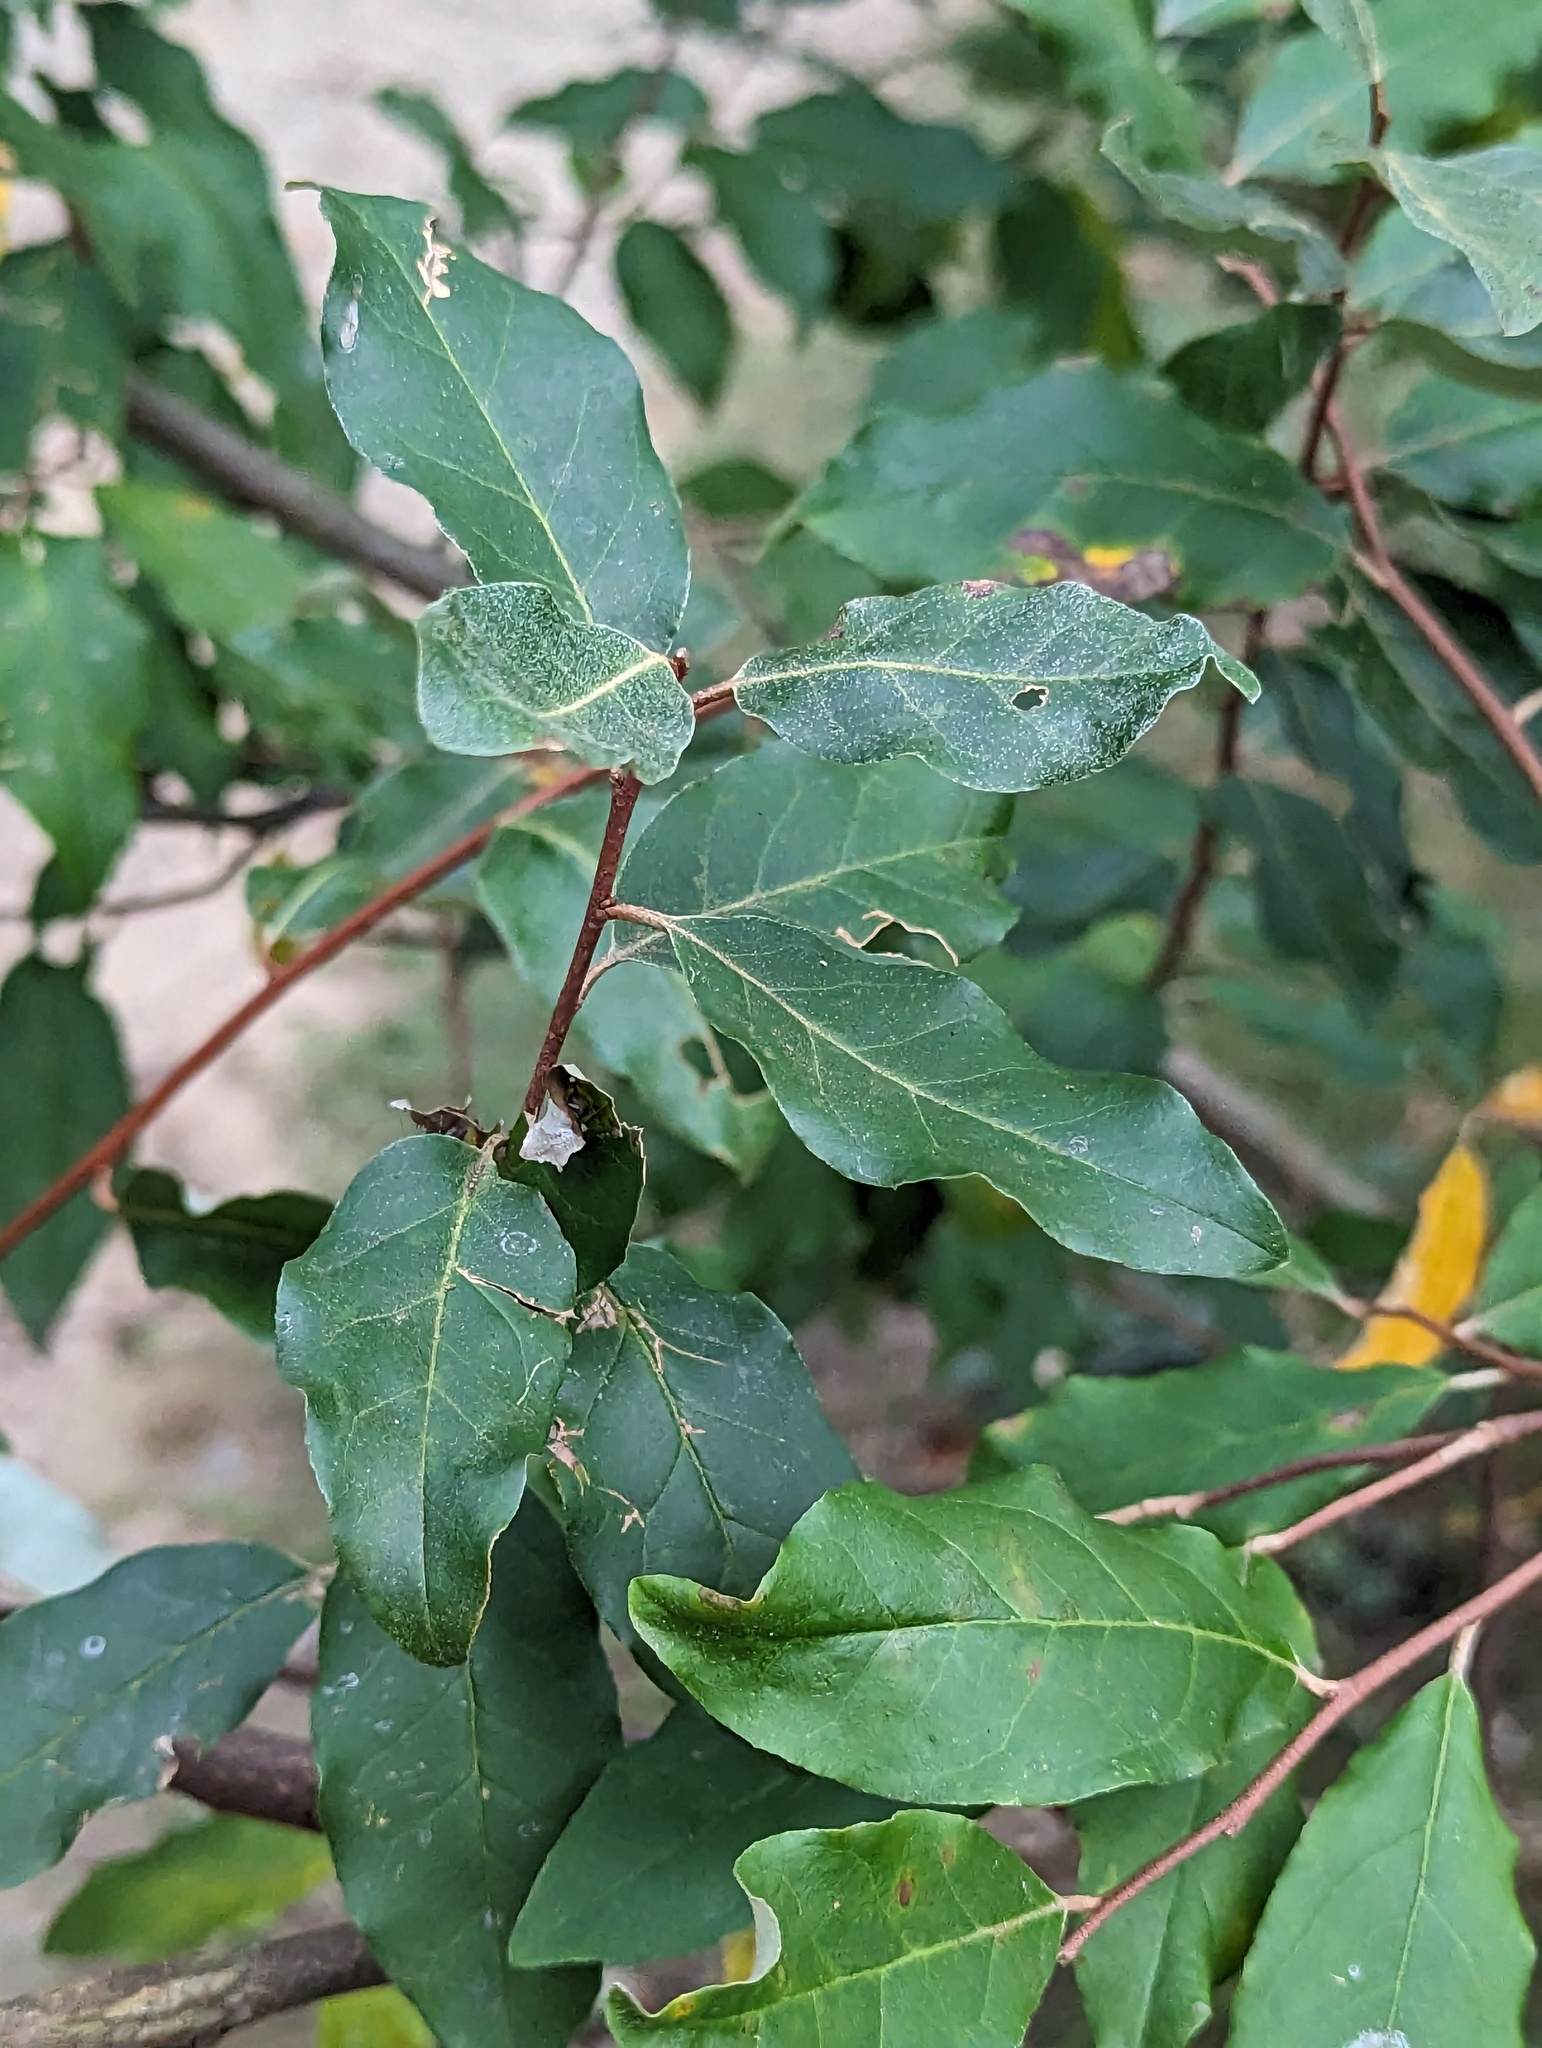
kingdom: Plantae
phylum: Tracheophyta
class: Magnoliopsida
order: Rosales
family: Elaeagnaceae
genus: Elaeagnus
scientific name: Elaeagnus umbellata
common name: Autumn olive
